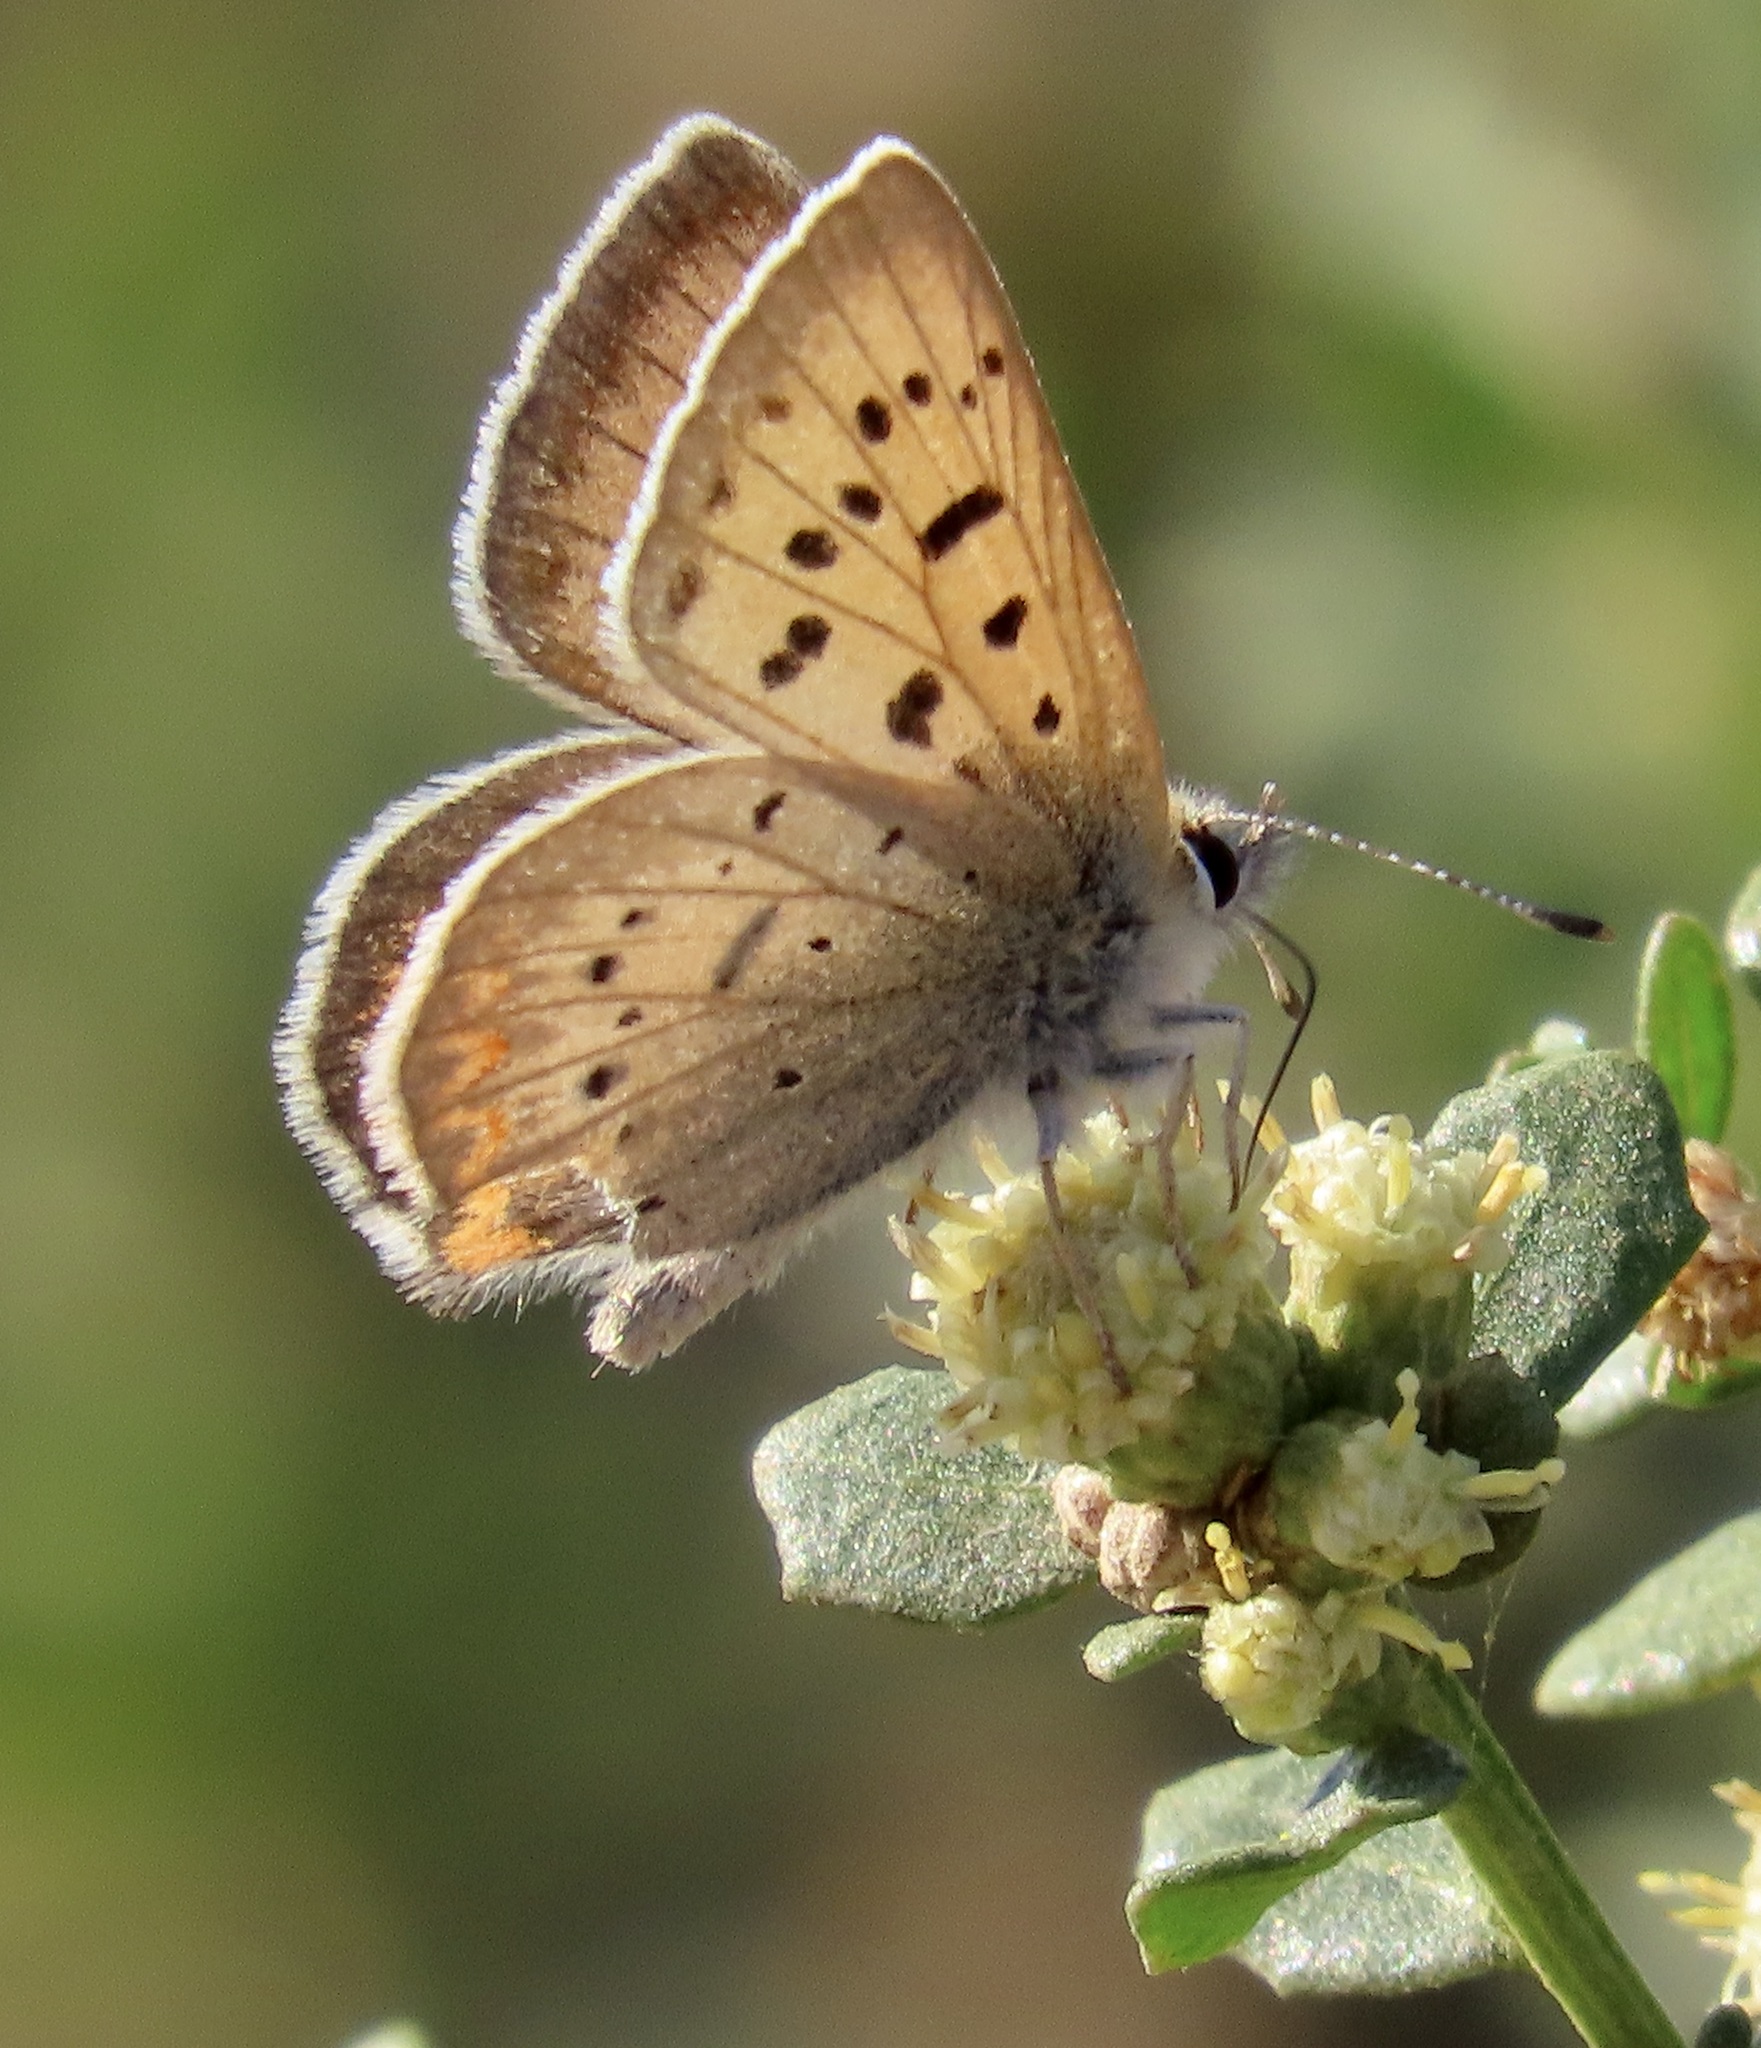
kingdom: Animalia
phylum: Arthropoda
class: Insecta
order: Lepidoptera
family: Lycaenidae
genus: Tharsalea
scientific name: Tharsalea helloides
